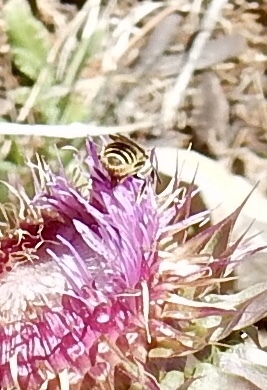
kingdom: Animalia
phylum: Arthropoda
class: Insecta
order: Hymenoptera
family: Megachilidae
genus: Megachile
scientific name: Megachile
